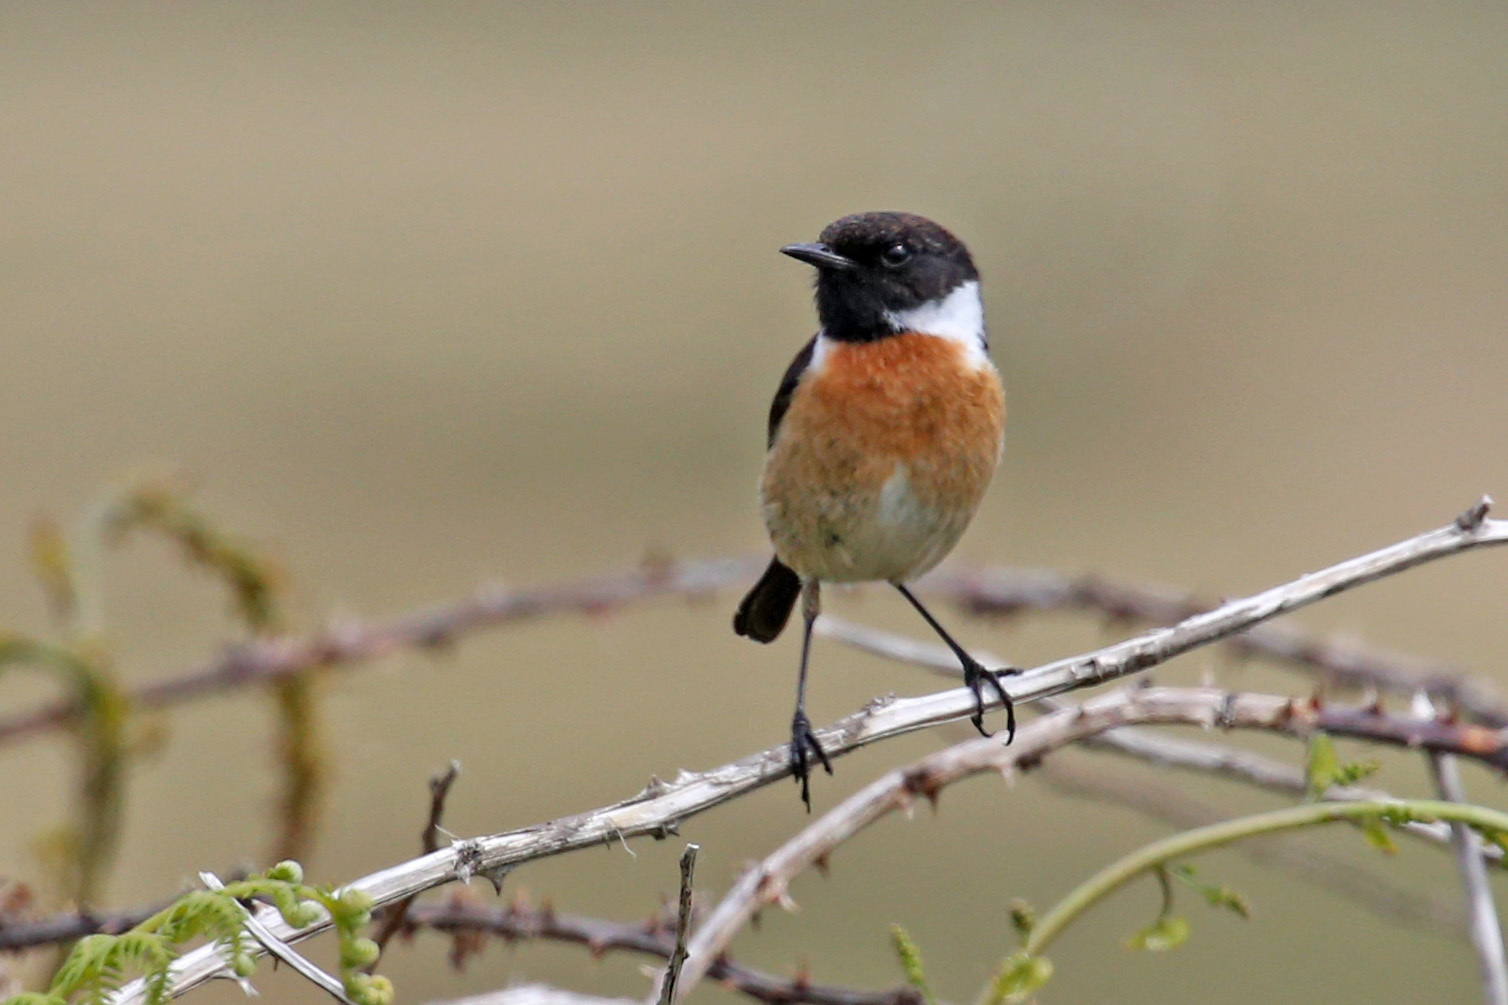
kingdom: Animalia
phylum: Chordata
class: Aves
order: Passeriformes
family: Muscicapidae
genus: Saxicola
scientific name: Saxicola rubicola
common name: European stonechat
